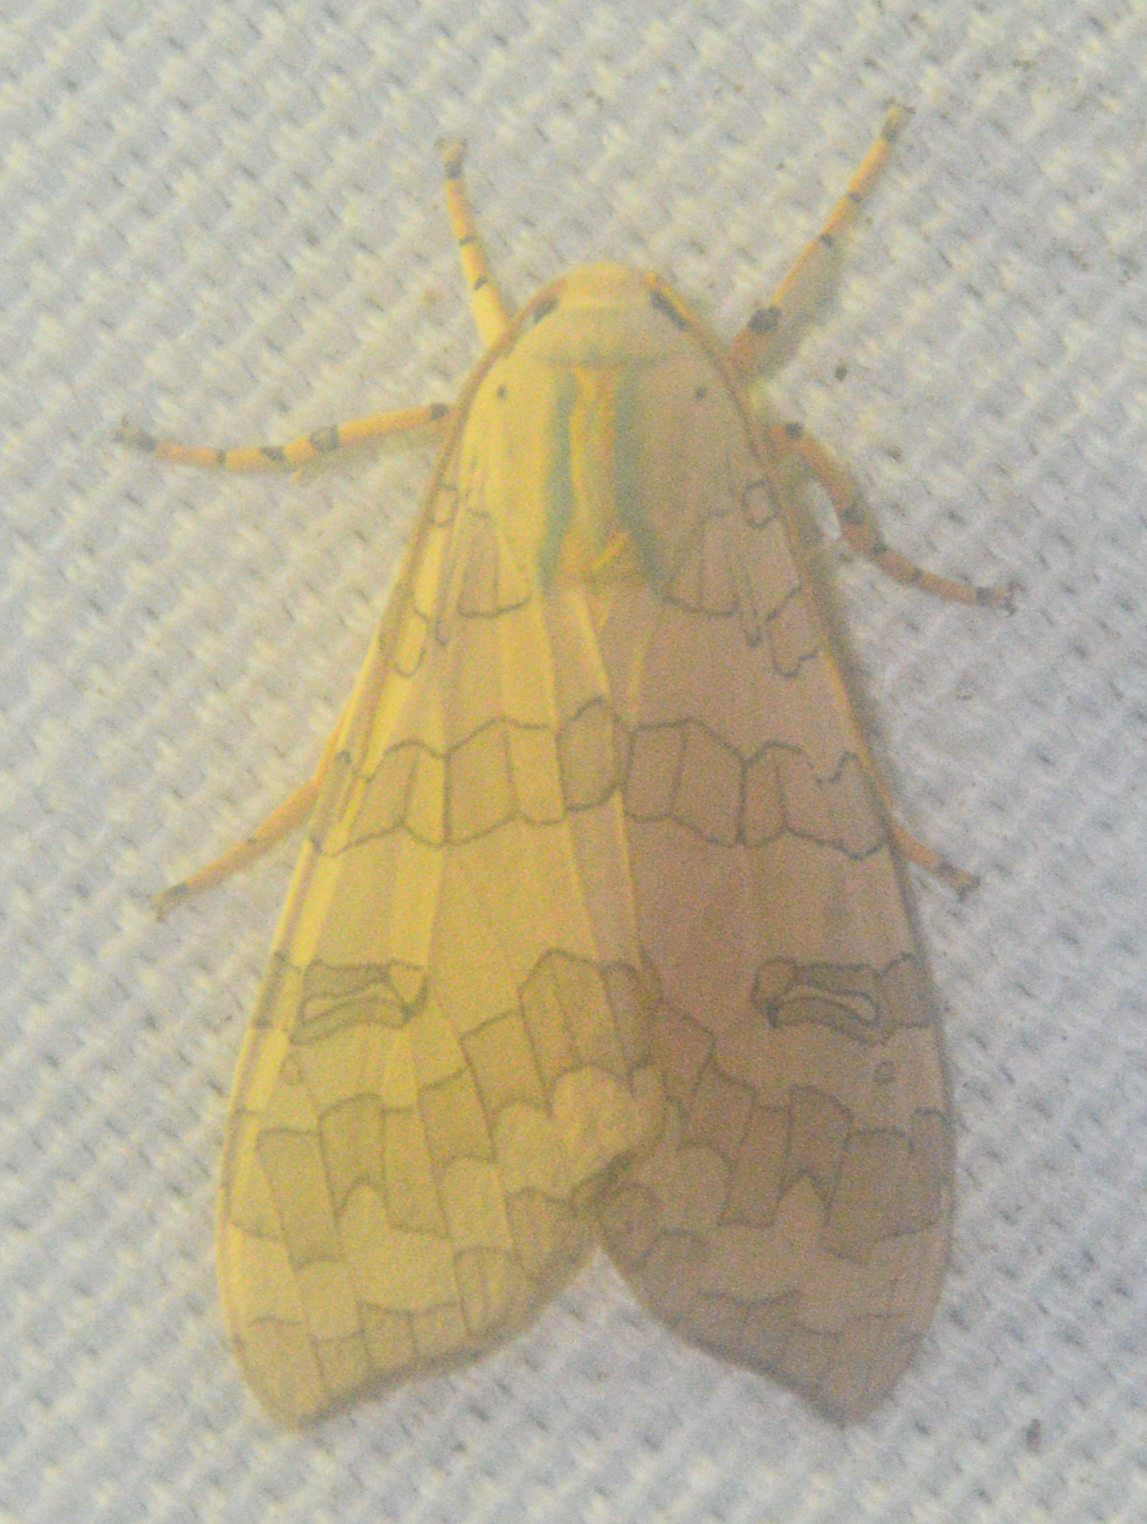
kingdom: Animalia
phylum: Arthropoda
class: Insecta
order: Lepidoptera
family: Erebidae
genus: Halysidota
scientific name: Halysidota
